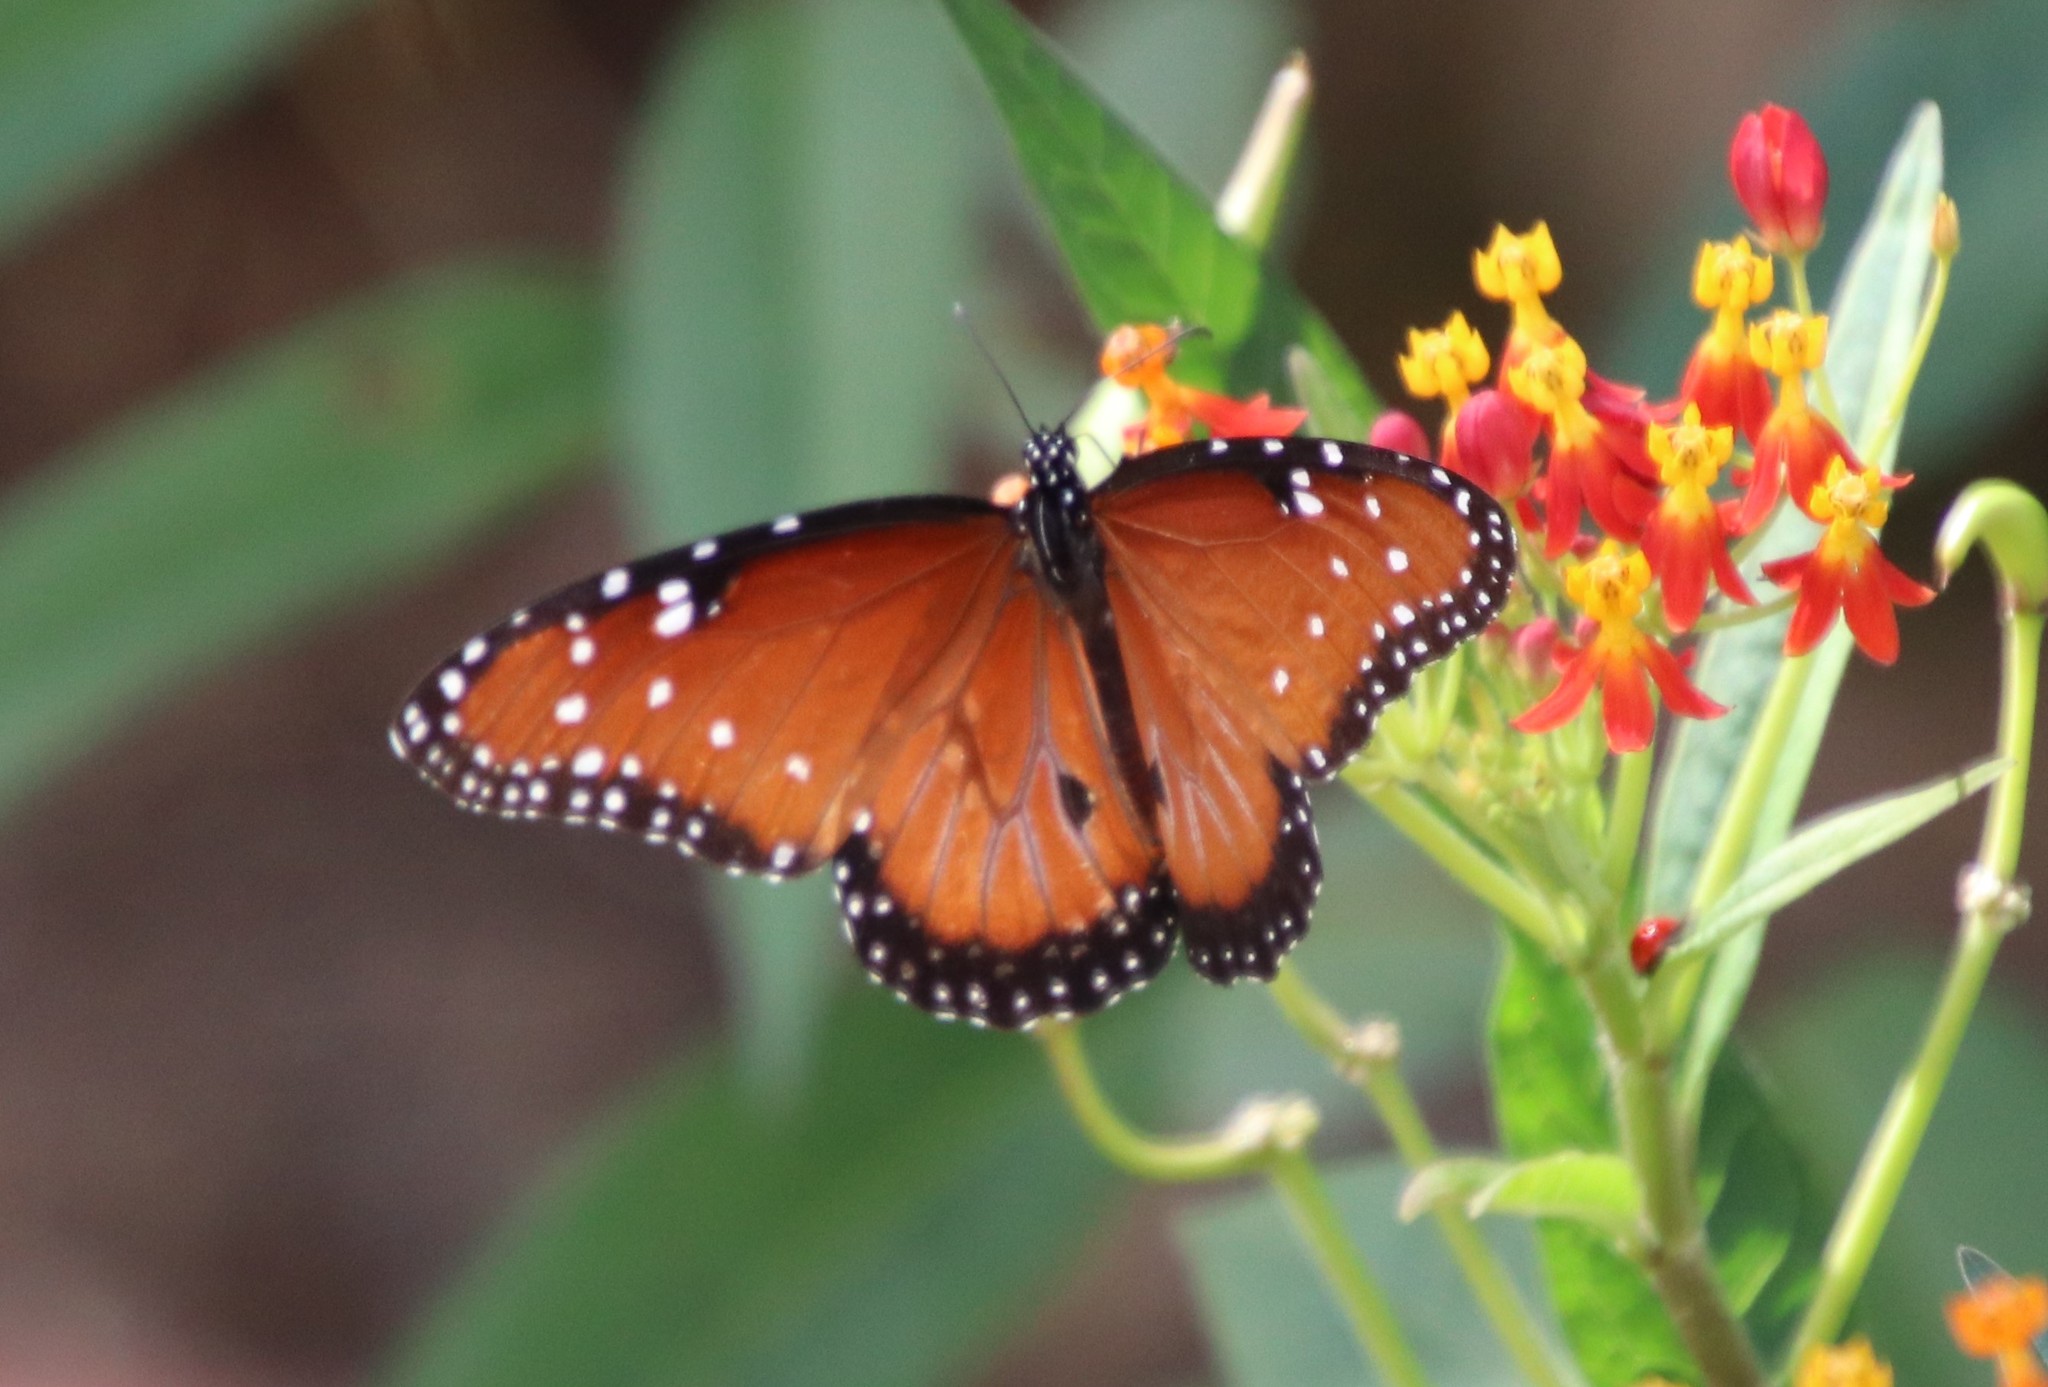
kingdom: Animalia
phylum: Arthropoda
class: Insecta
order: Lepidoptera
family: Nymphalidae
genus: Danaus
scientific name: Danaus gilippus
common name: Queen
